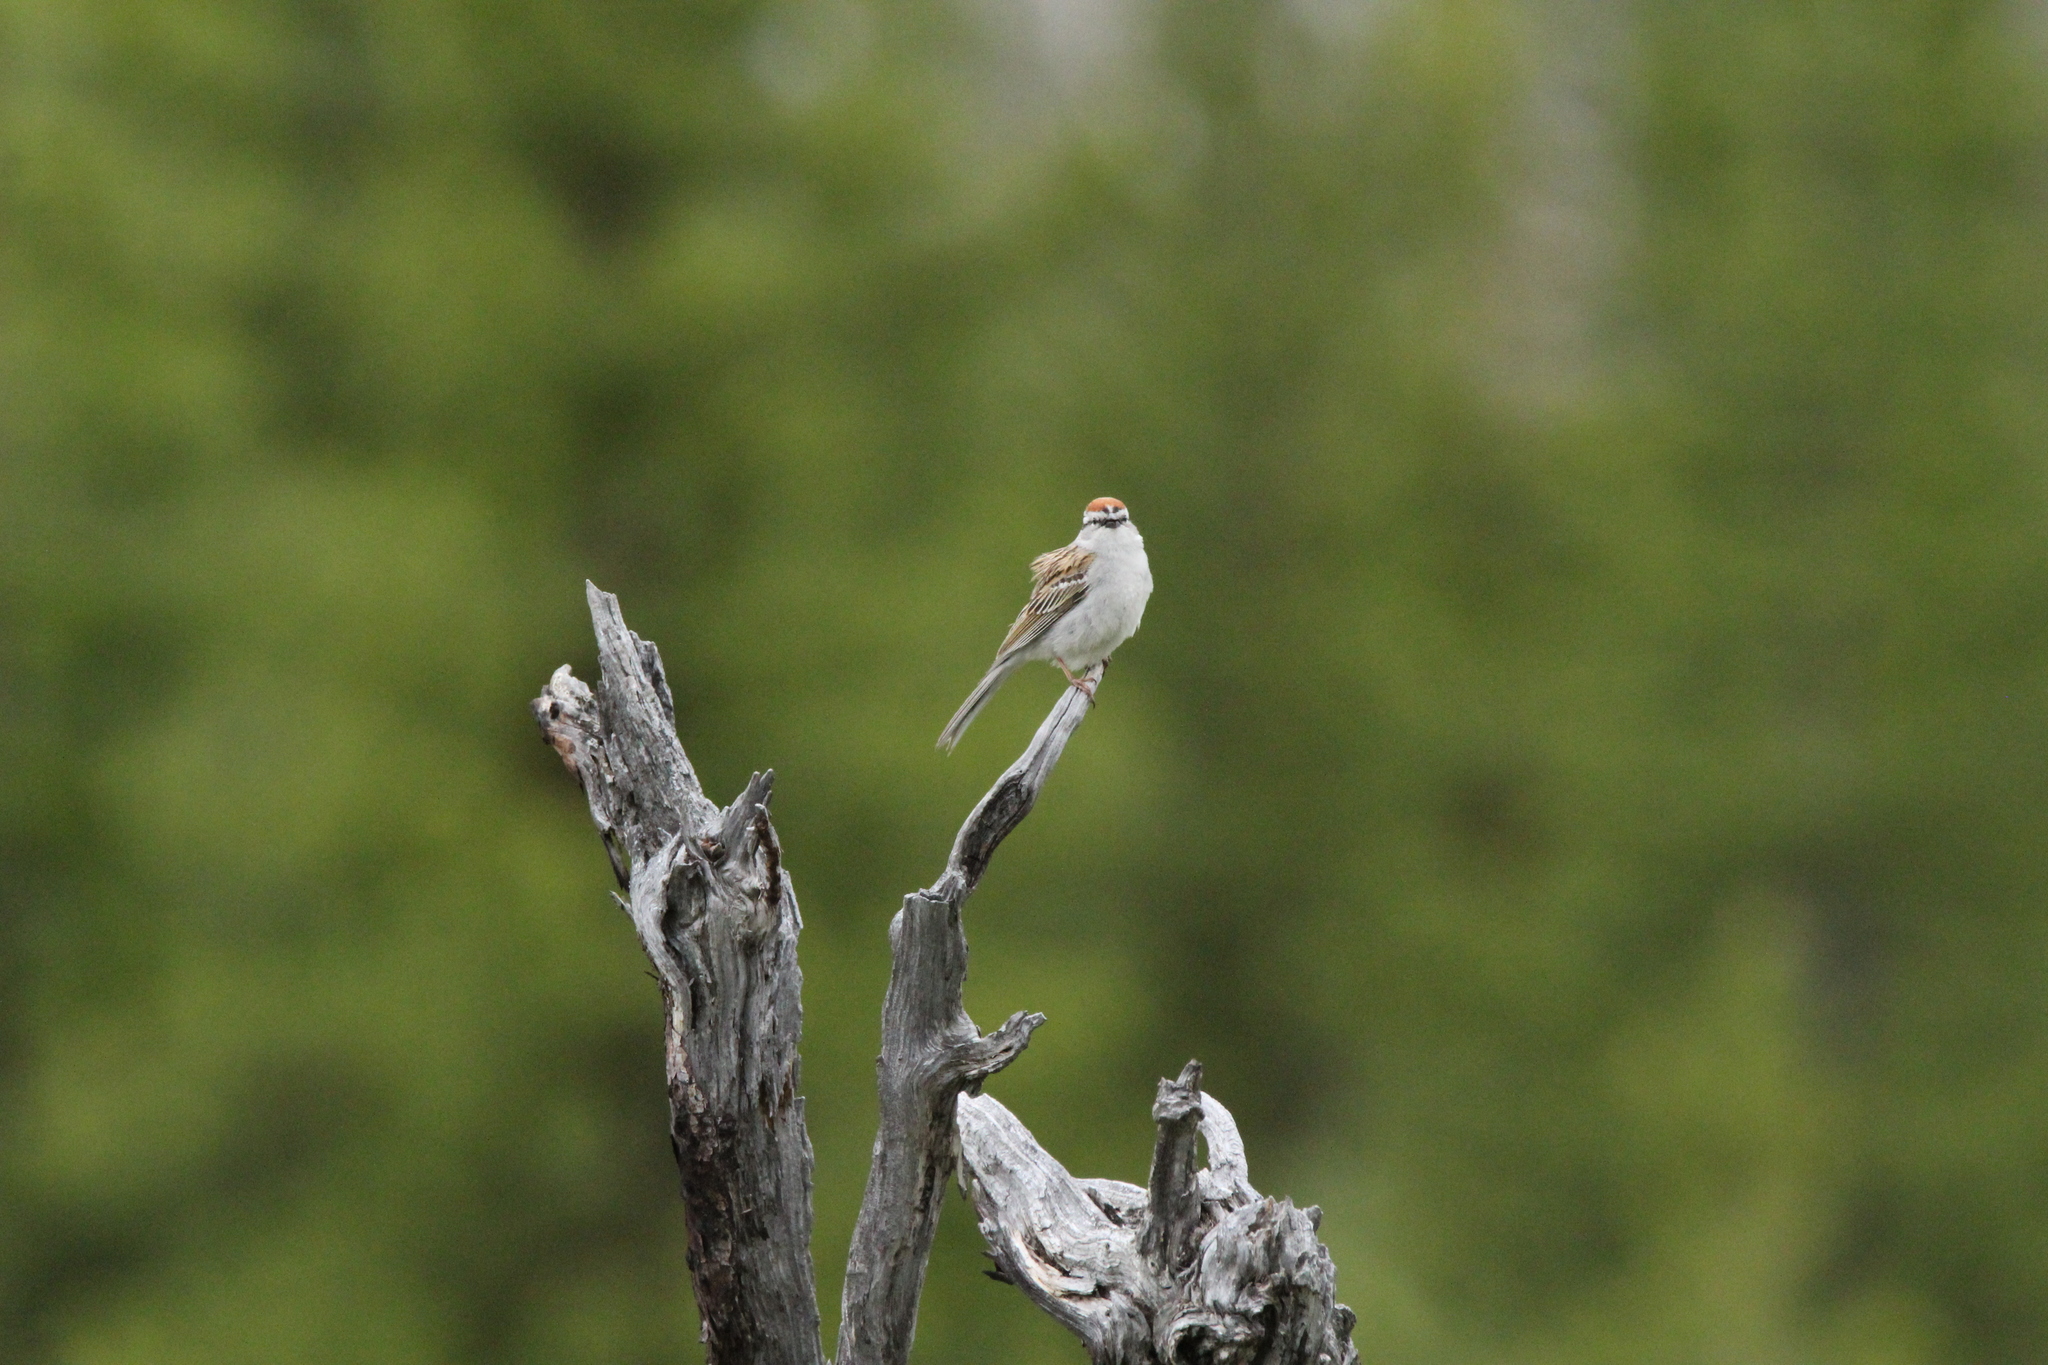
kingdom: Animalia
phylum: Chordata
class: Aves
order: Passeriformes
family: Passerellidae
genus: Spizella
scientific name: Spizella passerina
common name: Chipping sparrow
